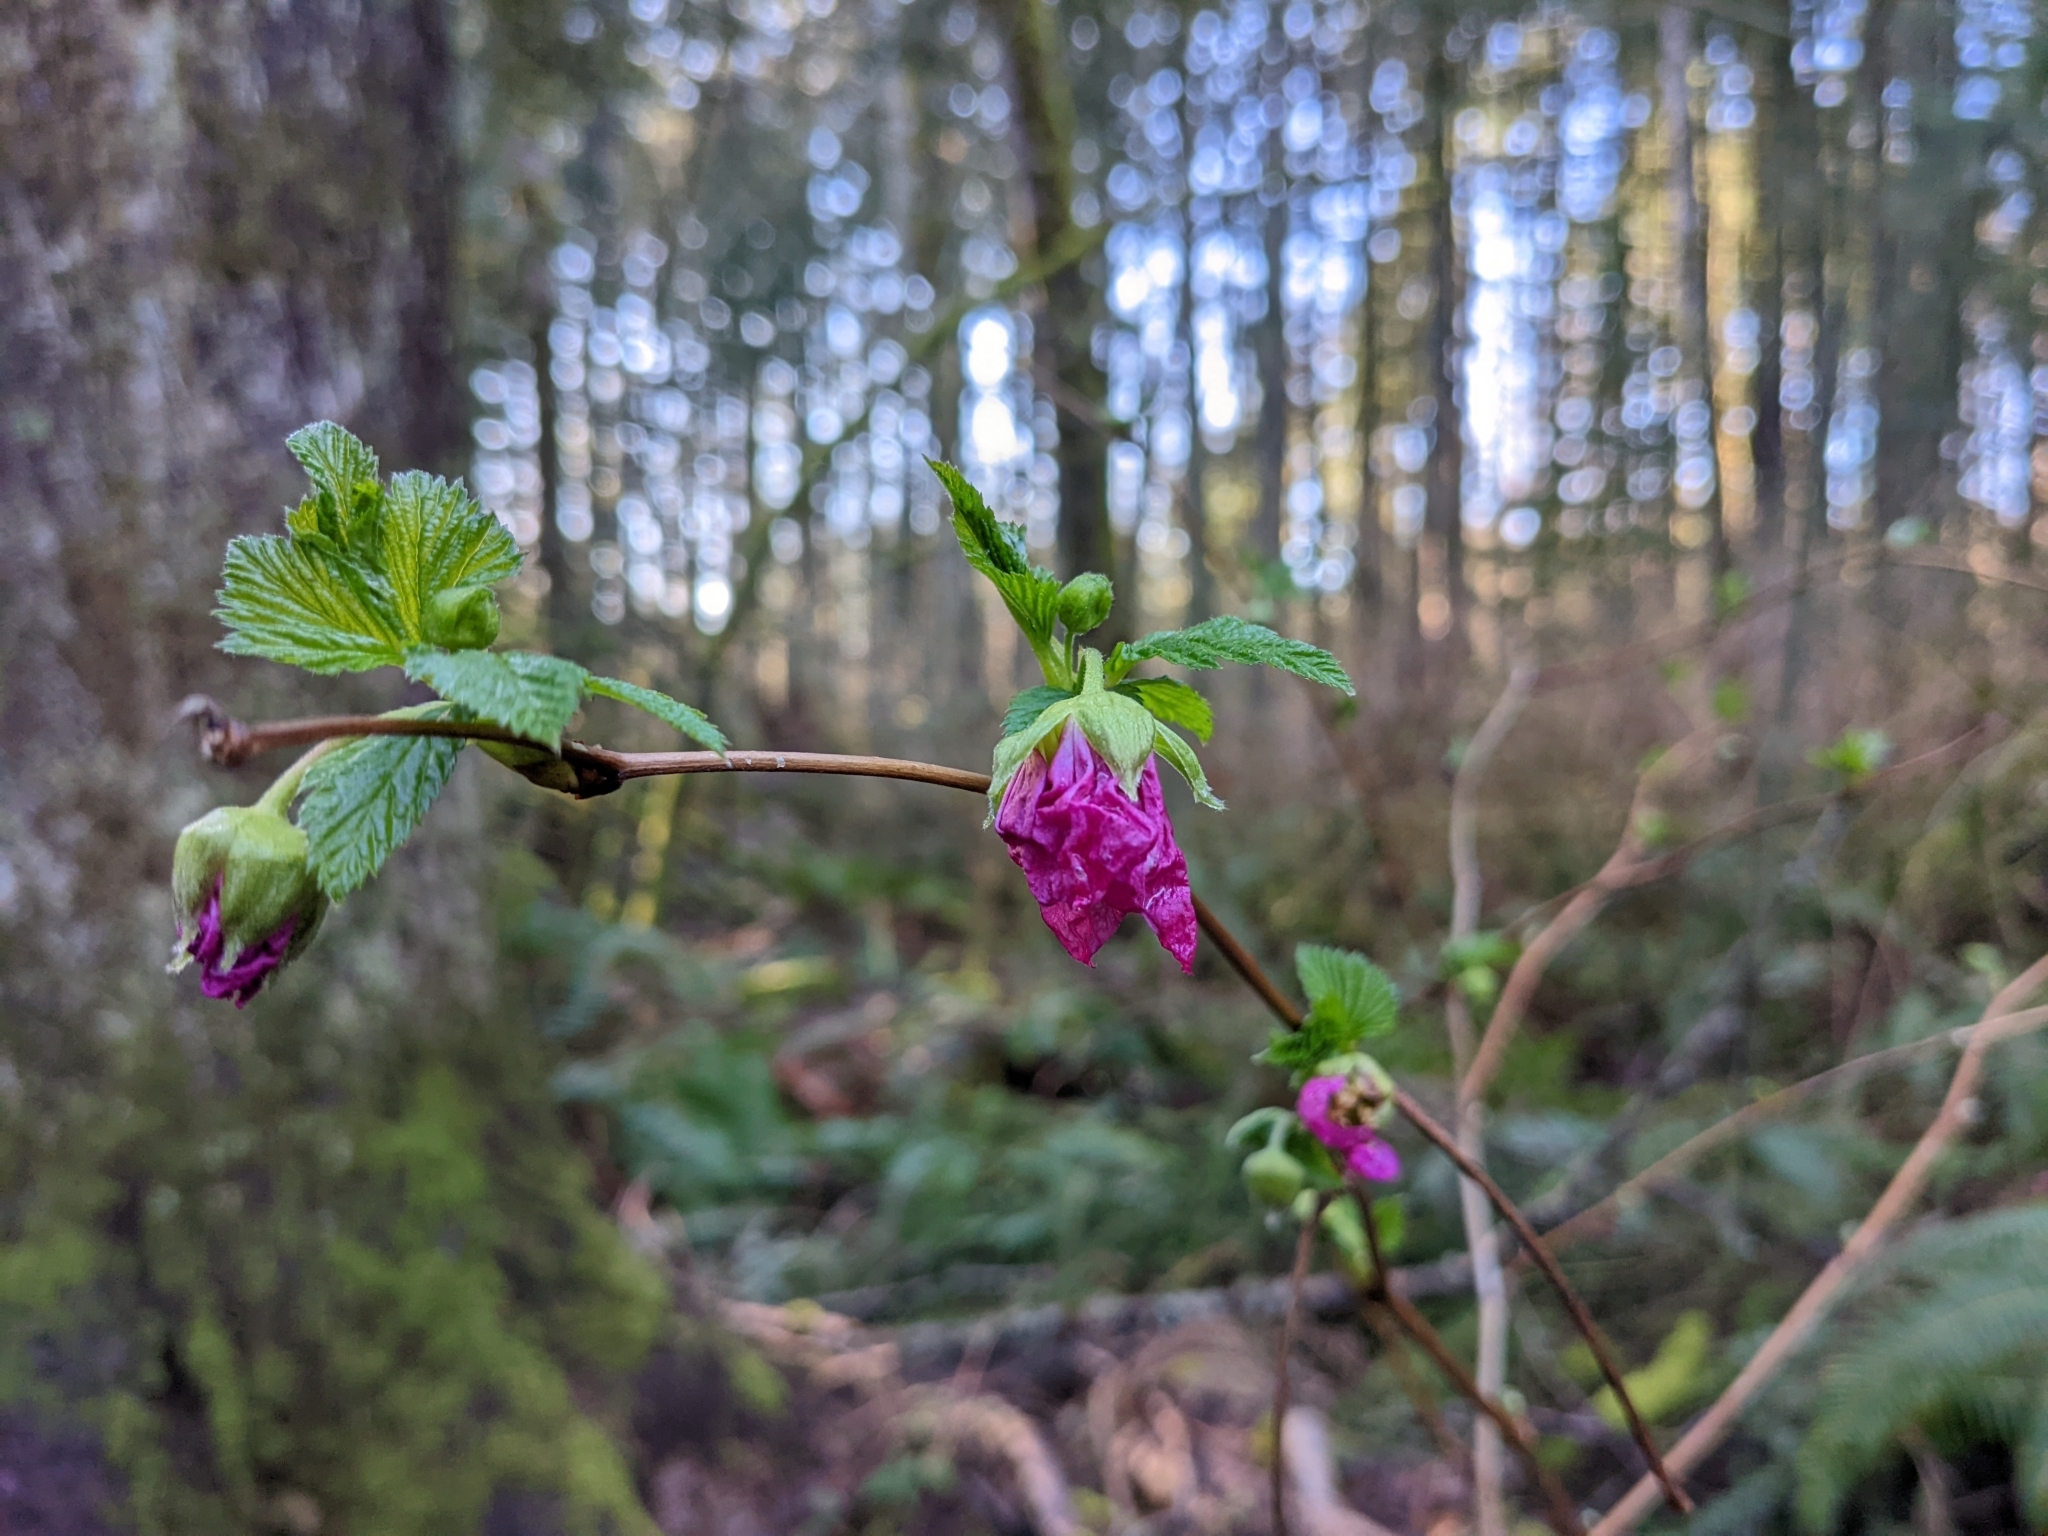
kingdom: Plantae
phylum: Tracheophyta
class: Magnoliopsida
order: Rosales
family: Rosaceae
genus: Rubus
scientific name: Rubus spectabilis
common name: Salmonberry
